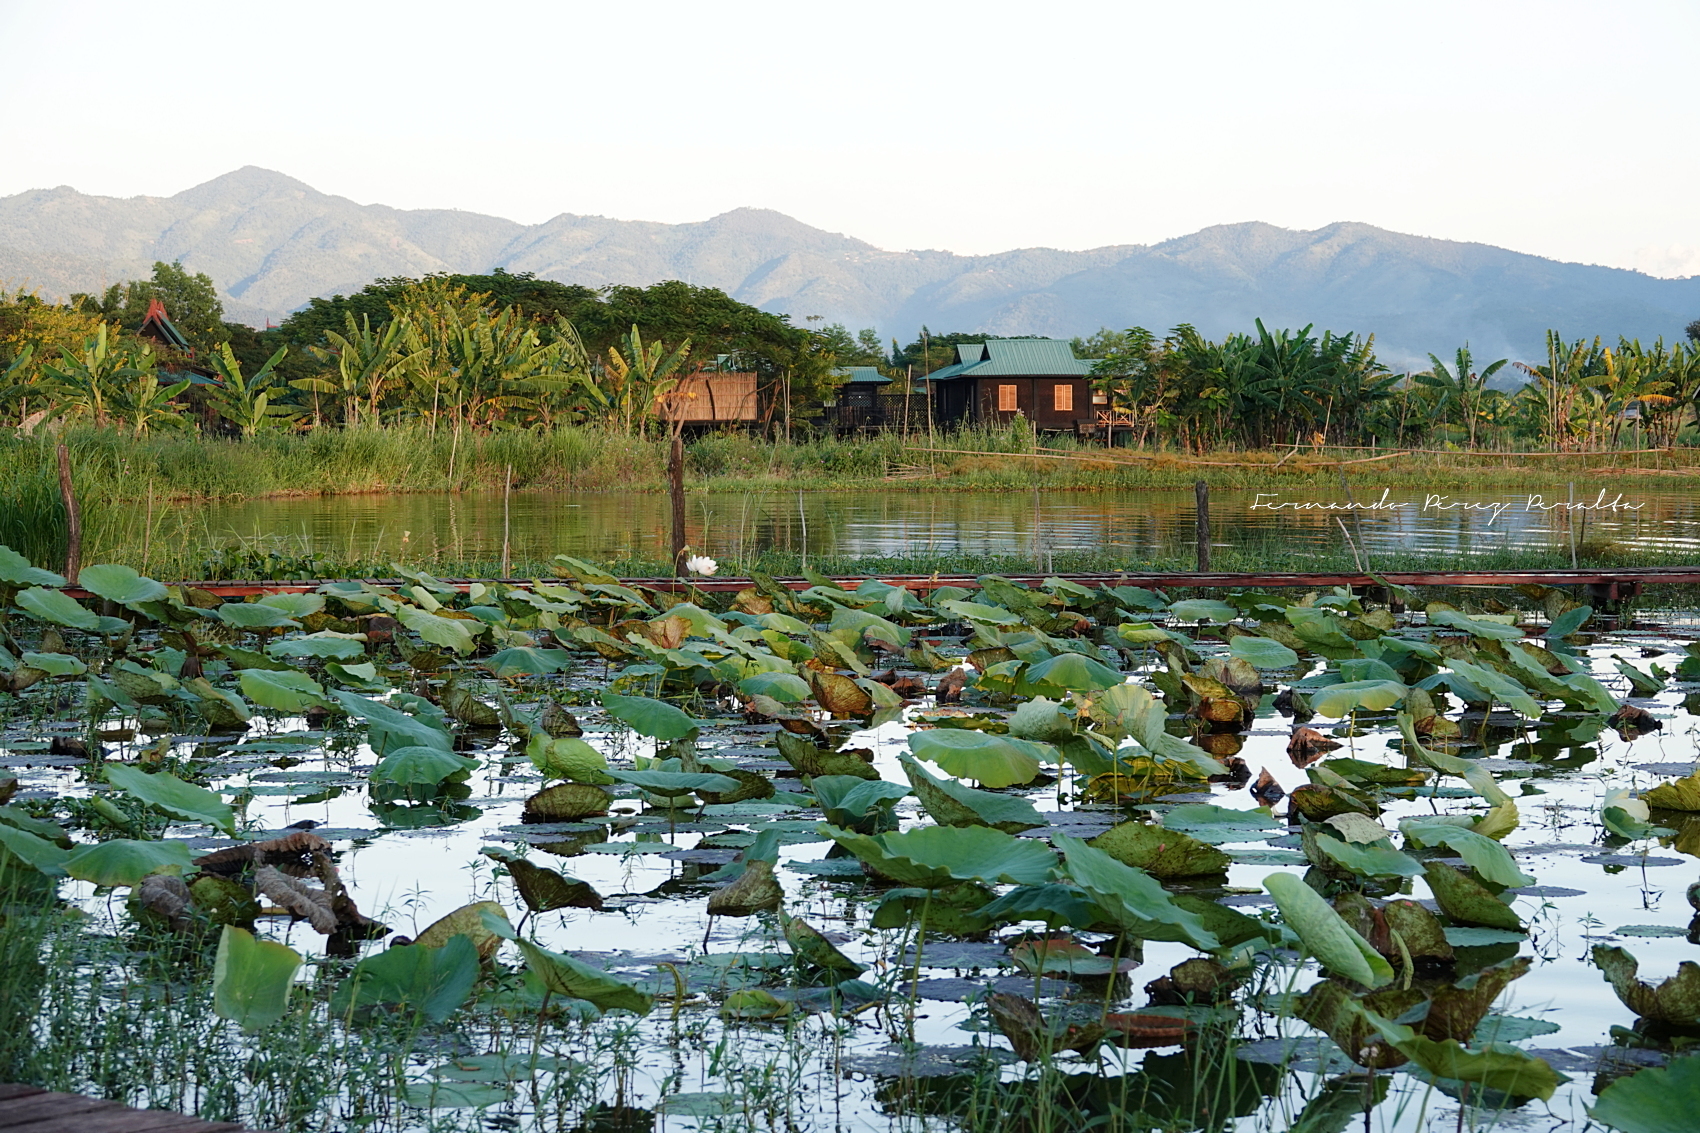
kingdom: Plantae
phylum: Tracheophyta
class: Magnoliopsida
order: Proteales
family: Nelumbonaceae
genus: Nelumbo
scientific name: Nelumbo nucifera
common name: Sacred lotus
